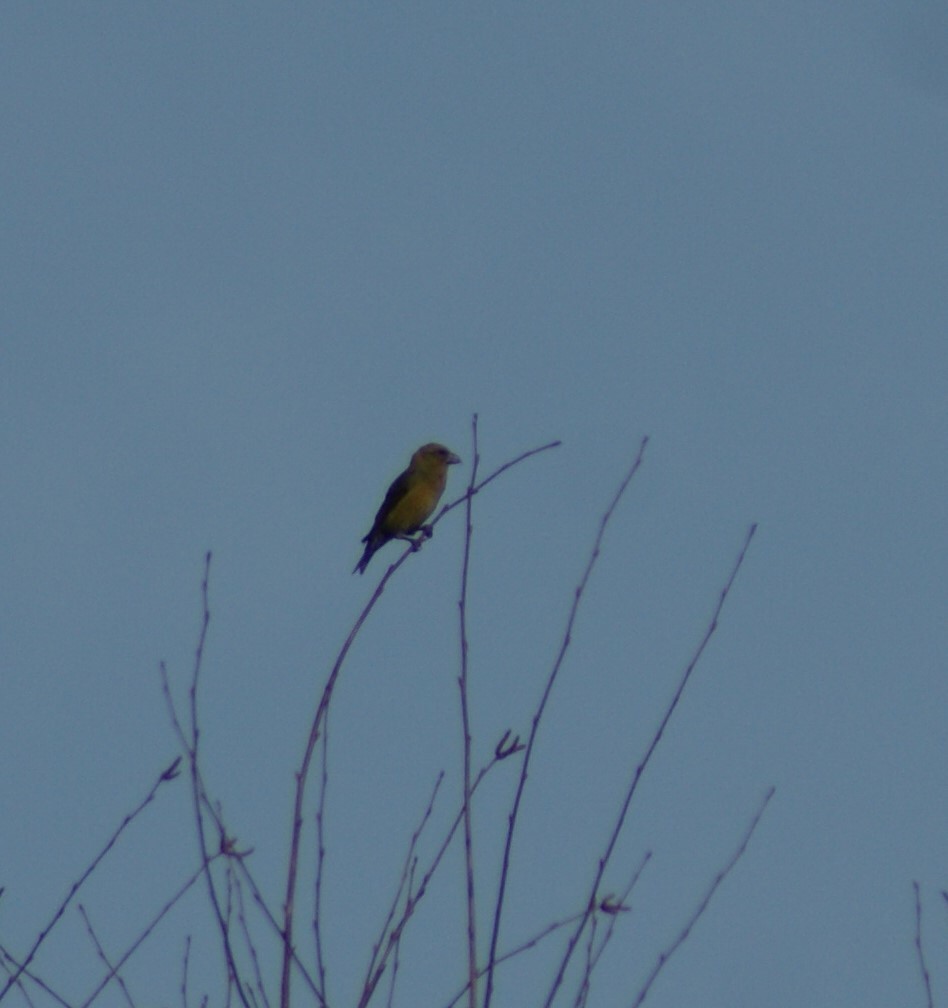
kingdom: Plantae
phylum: Tracheophyta
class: Liliopsida
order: Poales
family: Poaceae
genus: Chloris
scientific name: Chloris chloris
